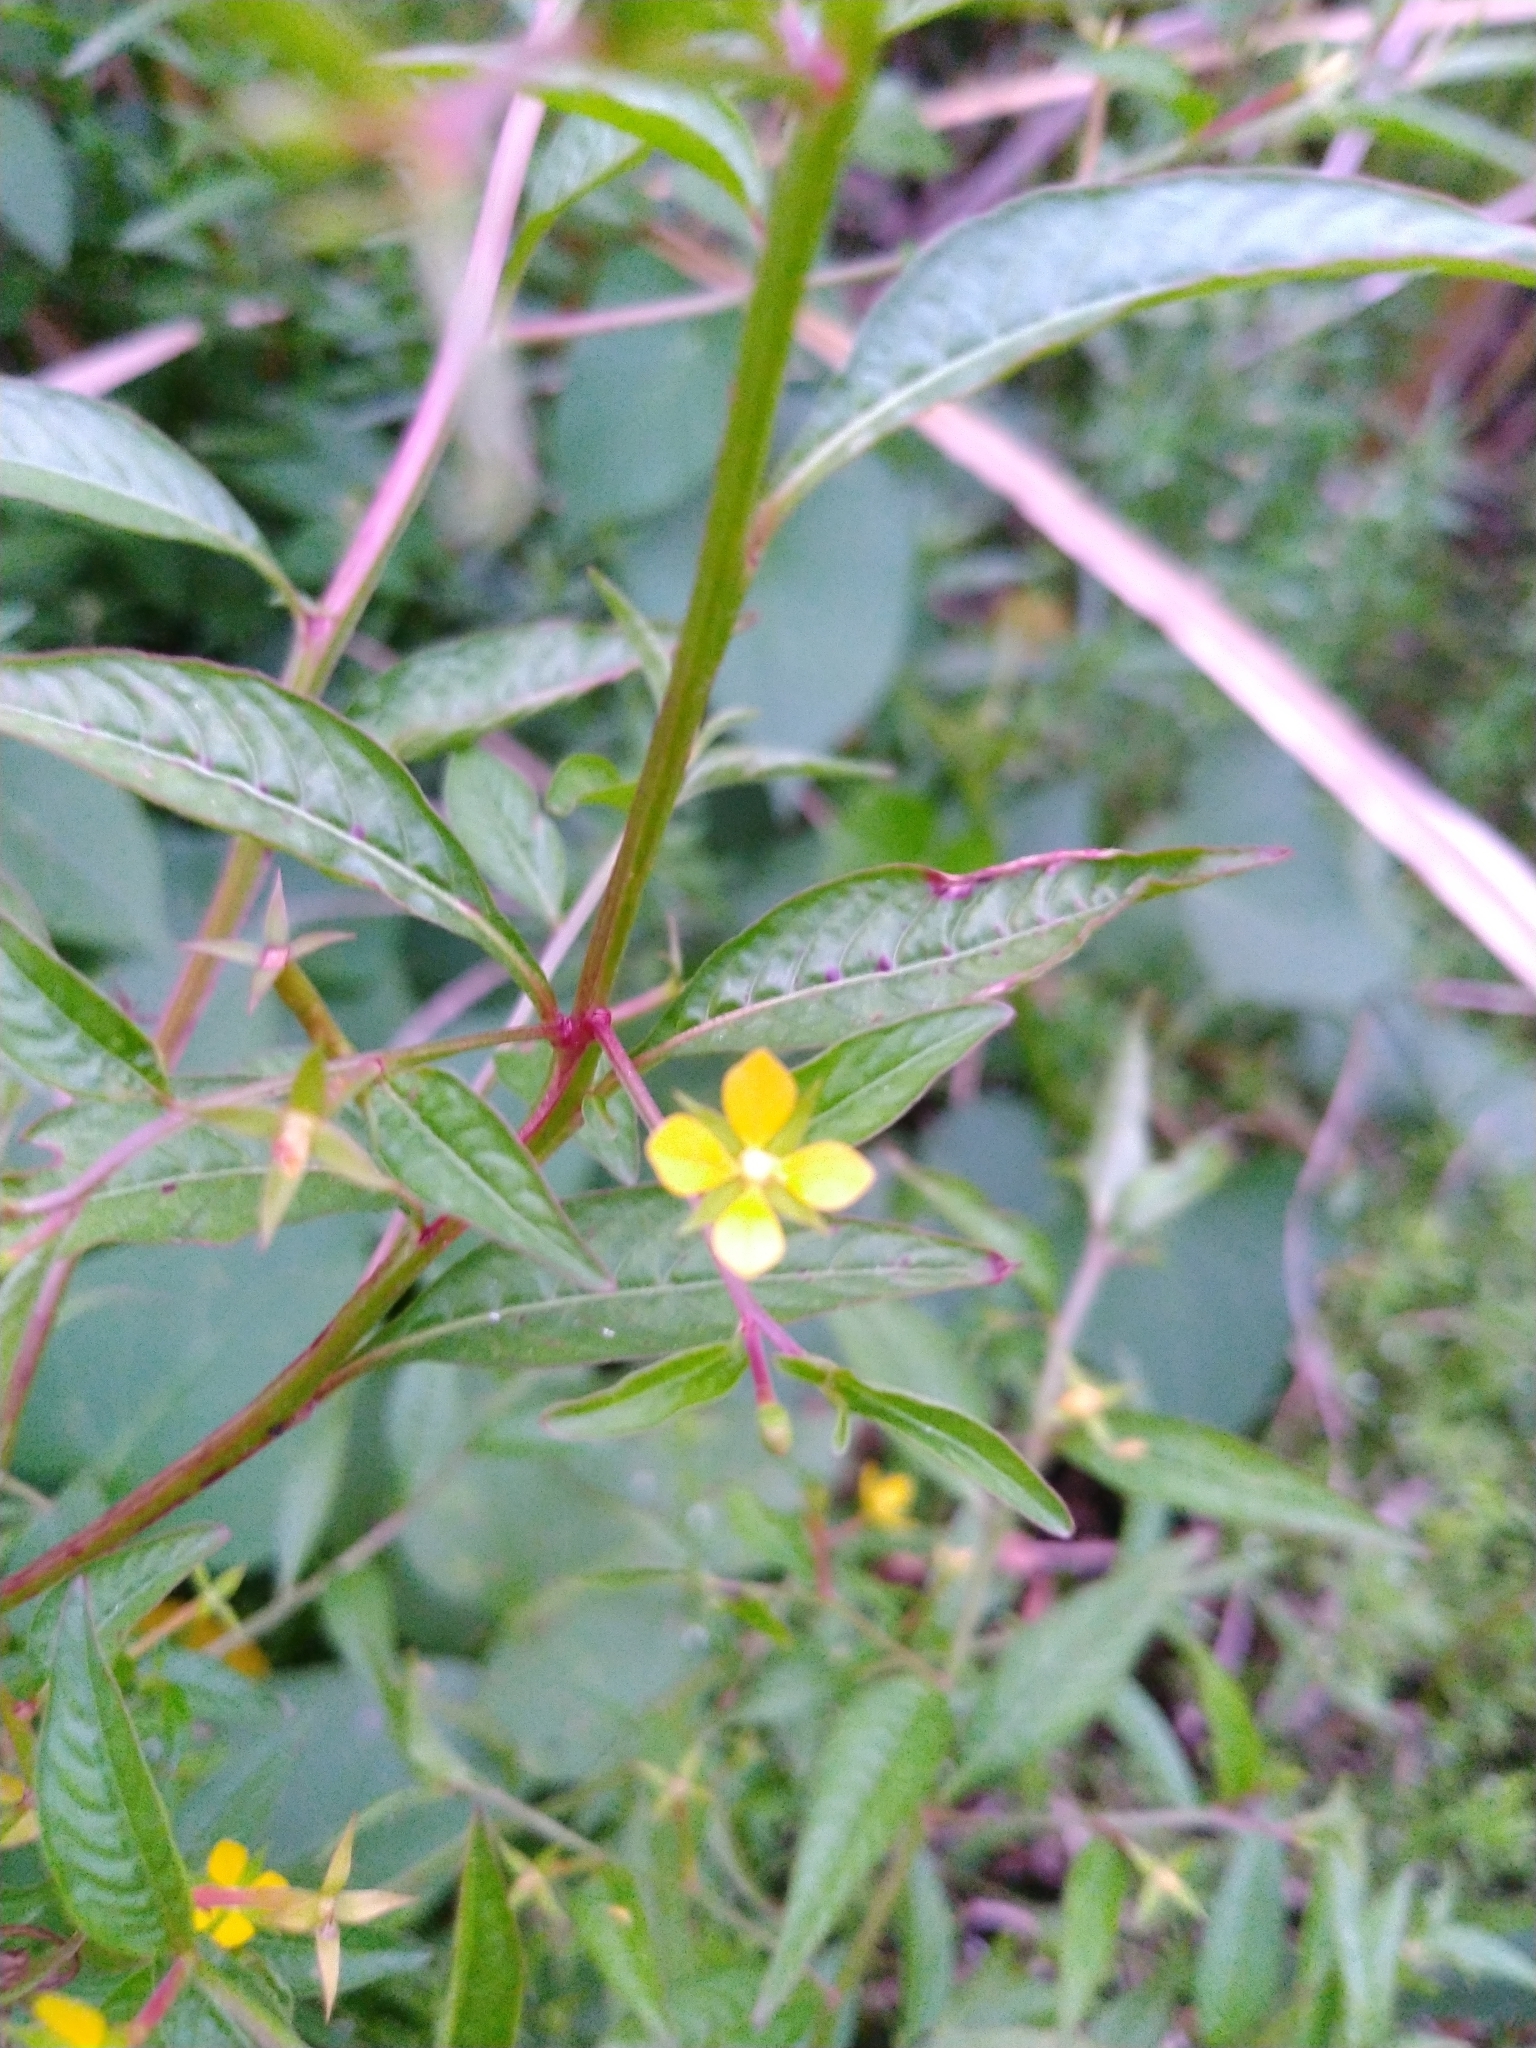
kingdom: Plantae
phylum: Tracheophyta
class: Magnoliopsida
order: Myrtales
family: Onagraceae
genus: Ludwigia
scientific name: Ludwigia hyssopifolia
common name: Linear leaf water primrose
